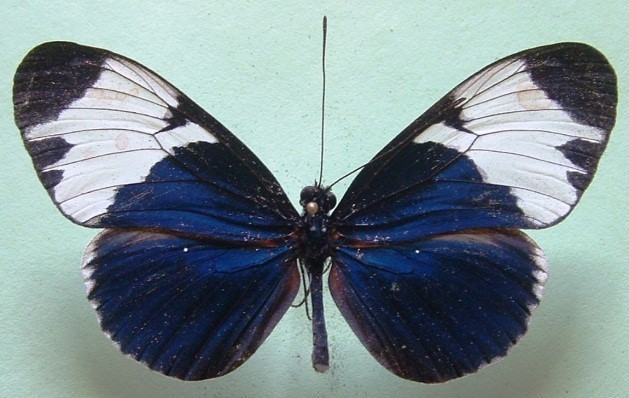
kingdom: Animalia
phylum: Arthropoda
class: Insecta
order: Lepidoptera
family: Nymphalidae
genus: Heliconius
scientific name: Heliconius sapho
